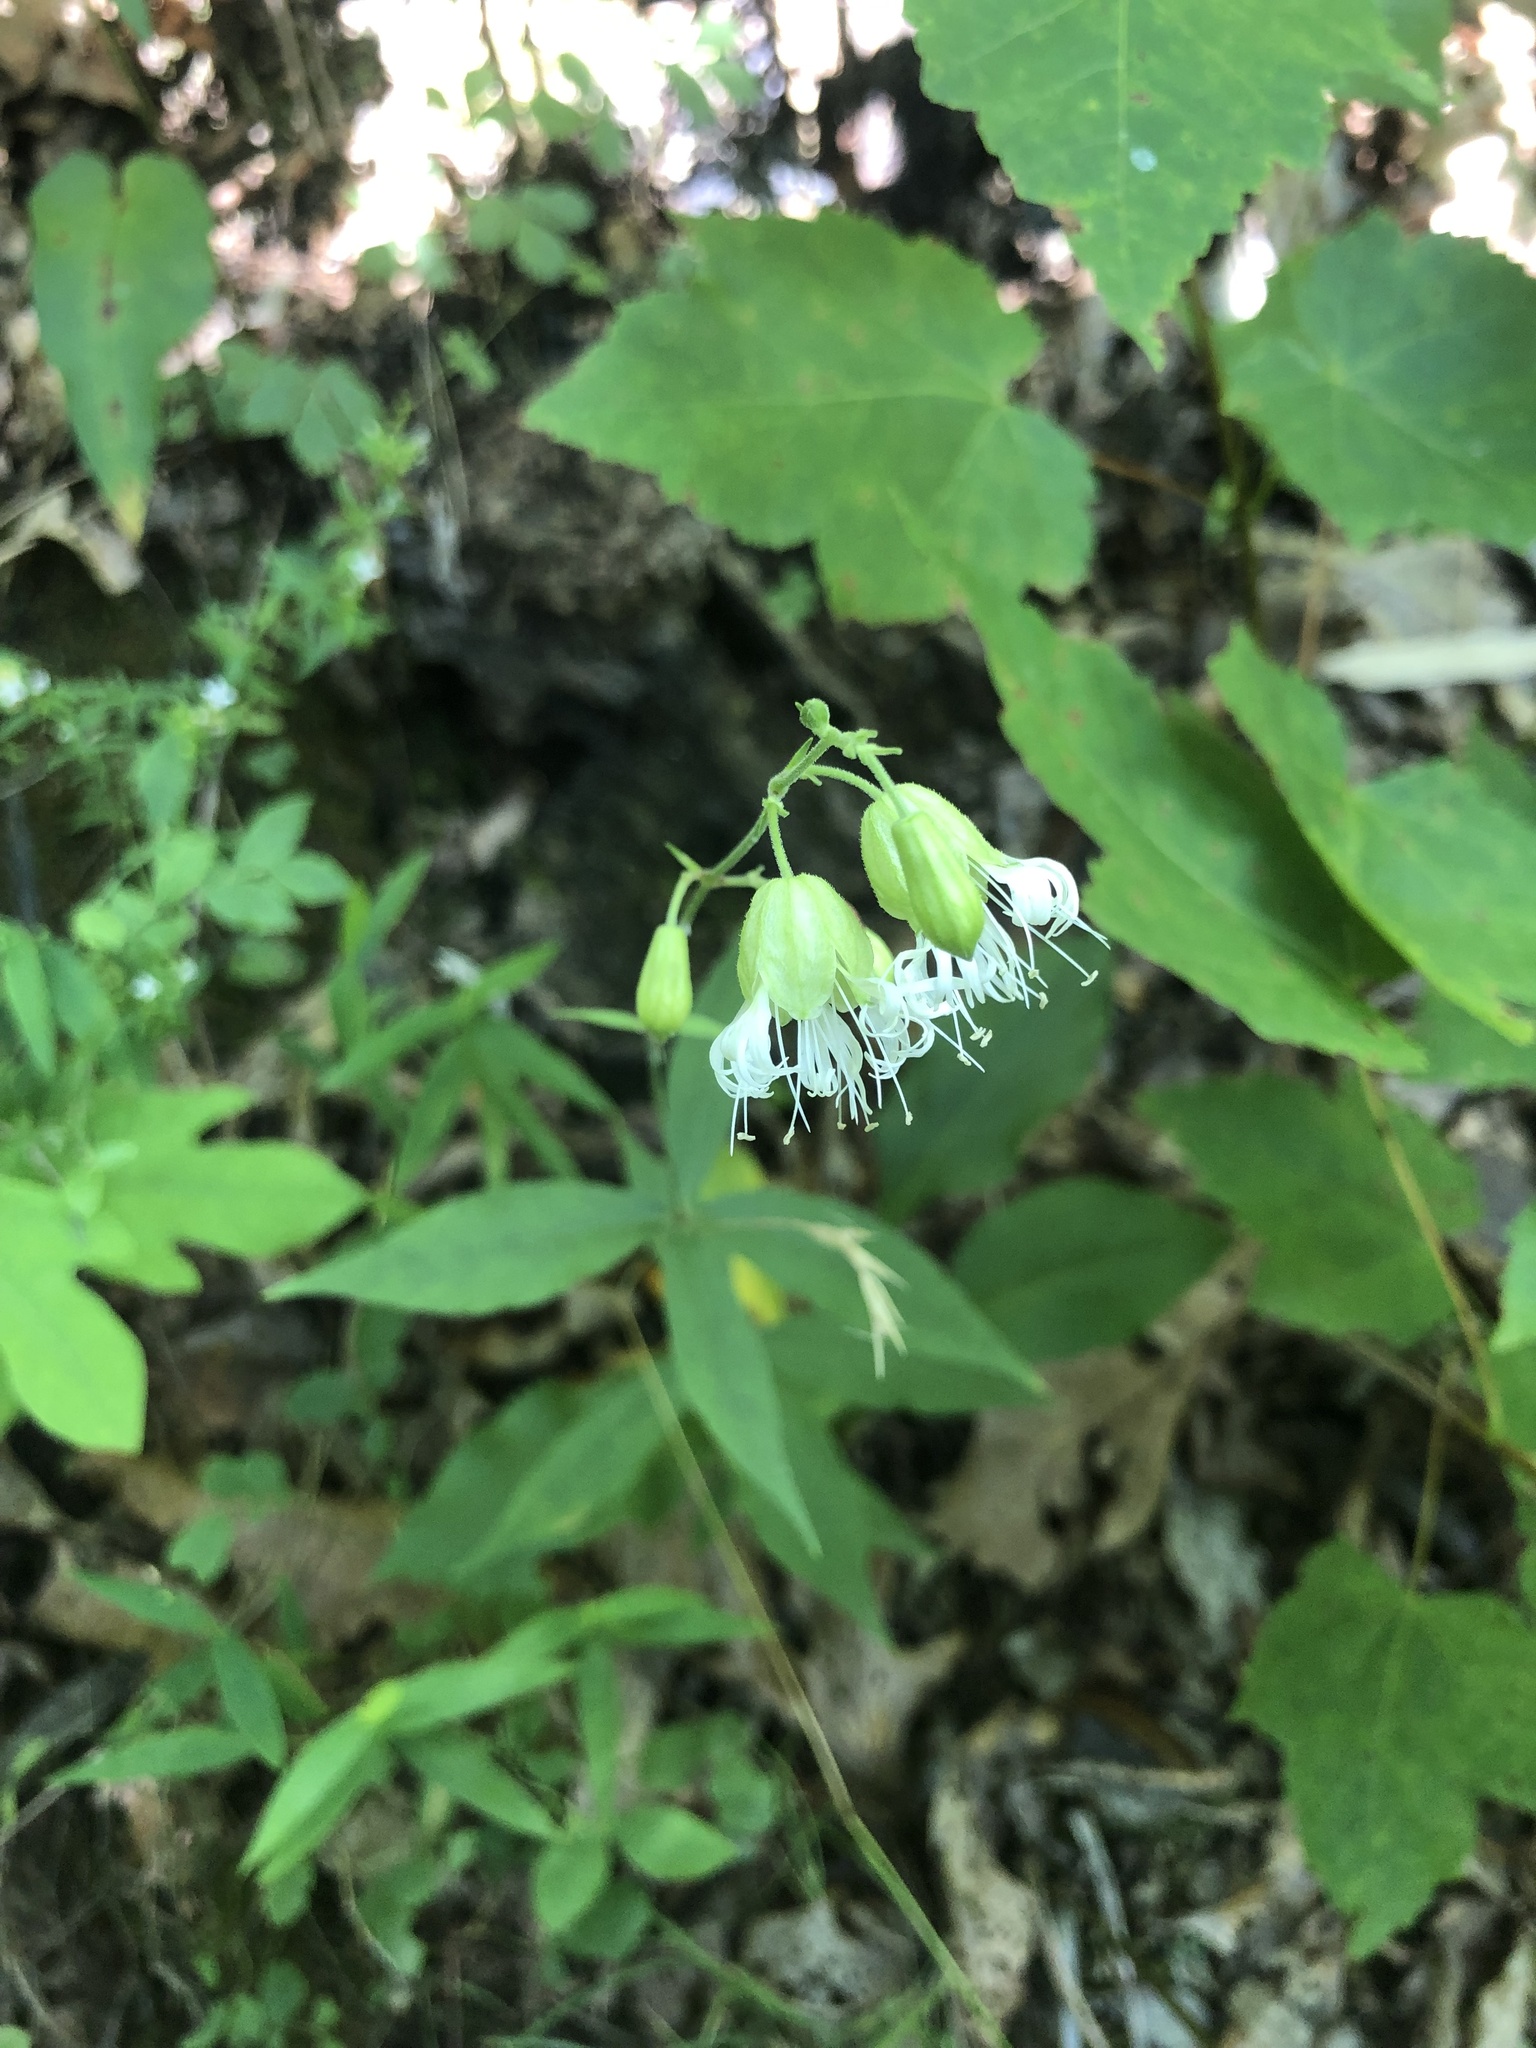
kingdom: Plantae
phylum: Tracheophyta
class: Magnoliopsida
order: Caryophyllales
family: Caryophyllaceae
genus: Silene
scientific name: Silene stellata
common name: Starry campion
